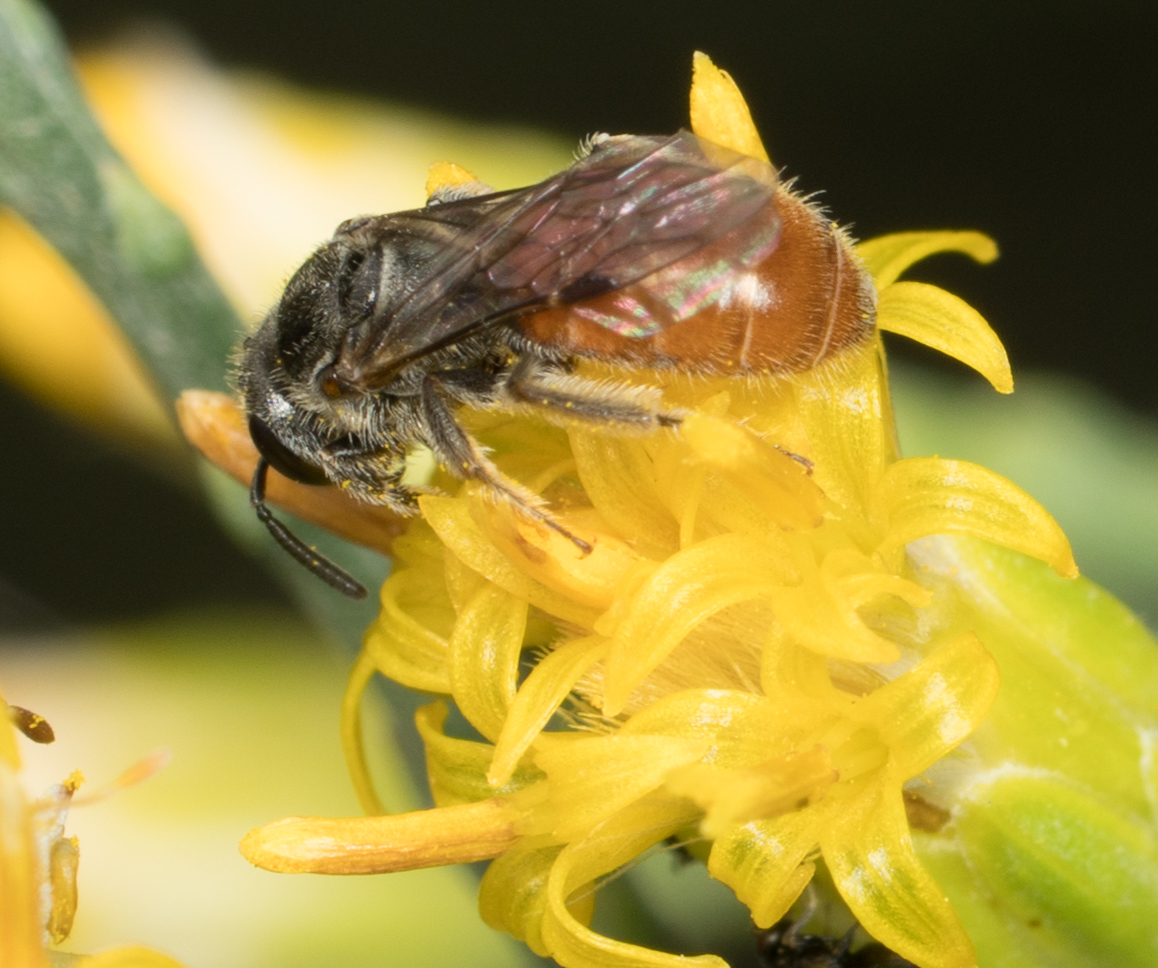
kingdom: Animalia
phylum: Arthropoda
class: Insecta
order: Hymenoptera
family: Halictidae
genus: Lasioglossum
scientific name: Lasioglossum ovaliceps
